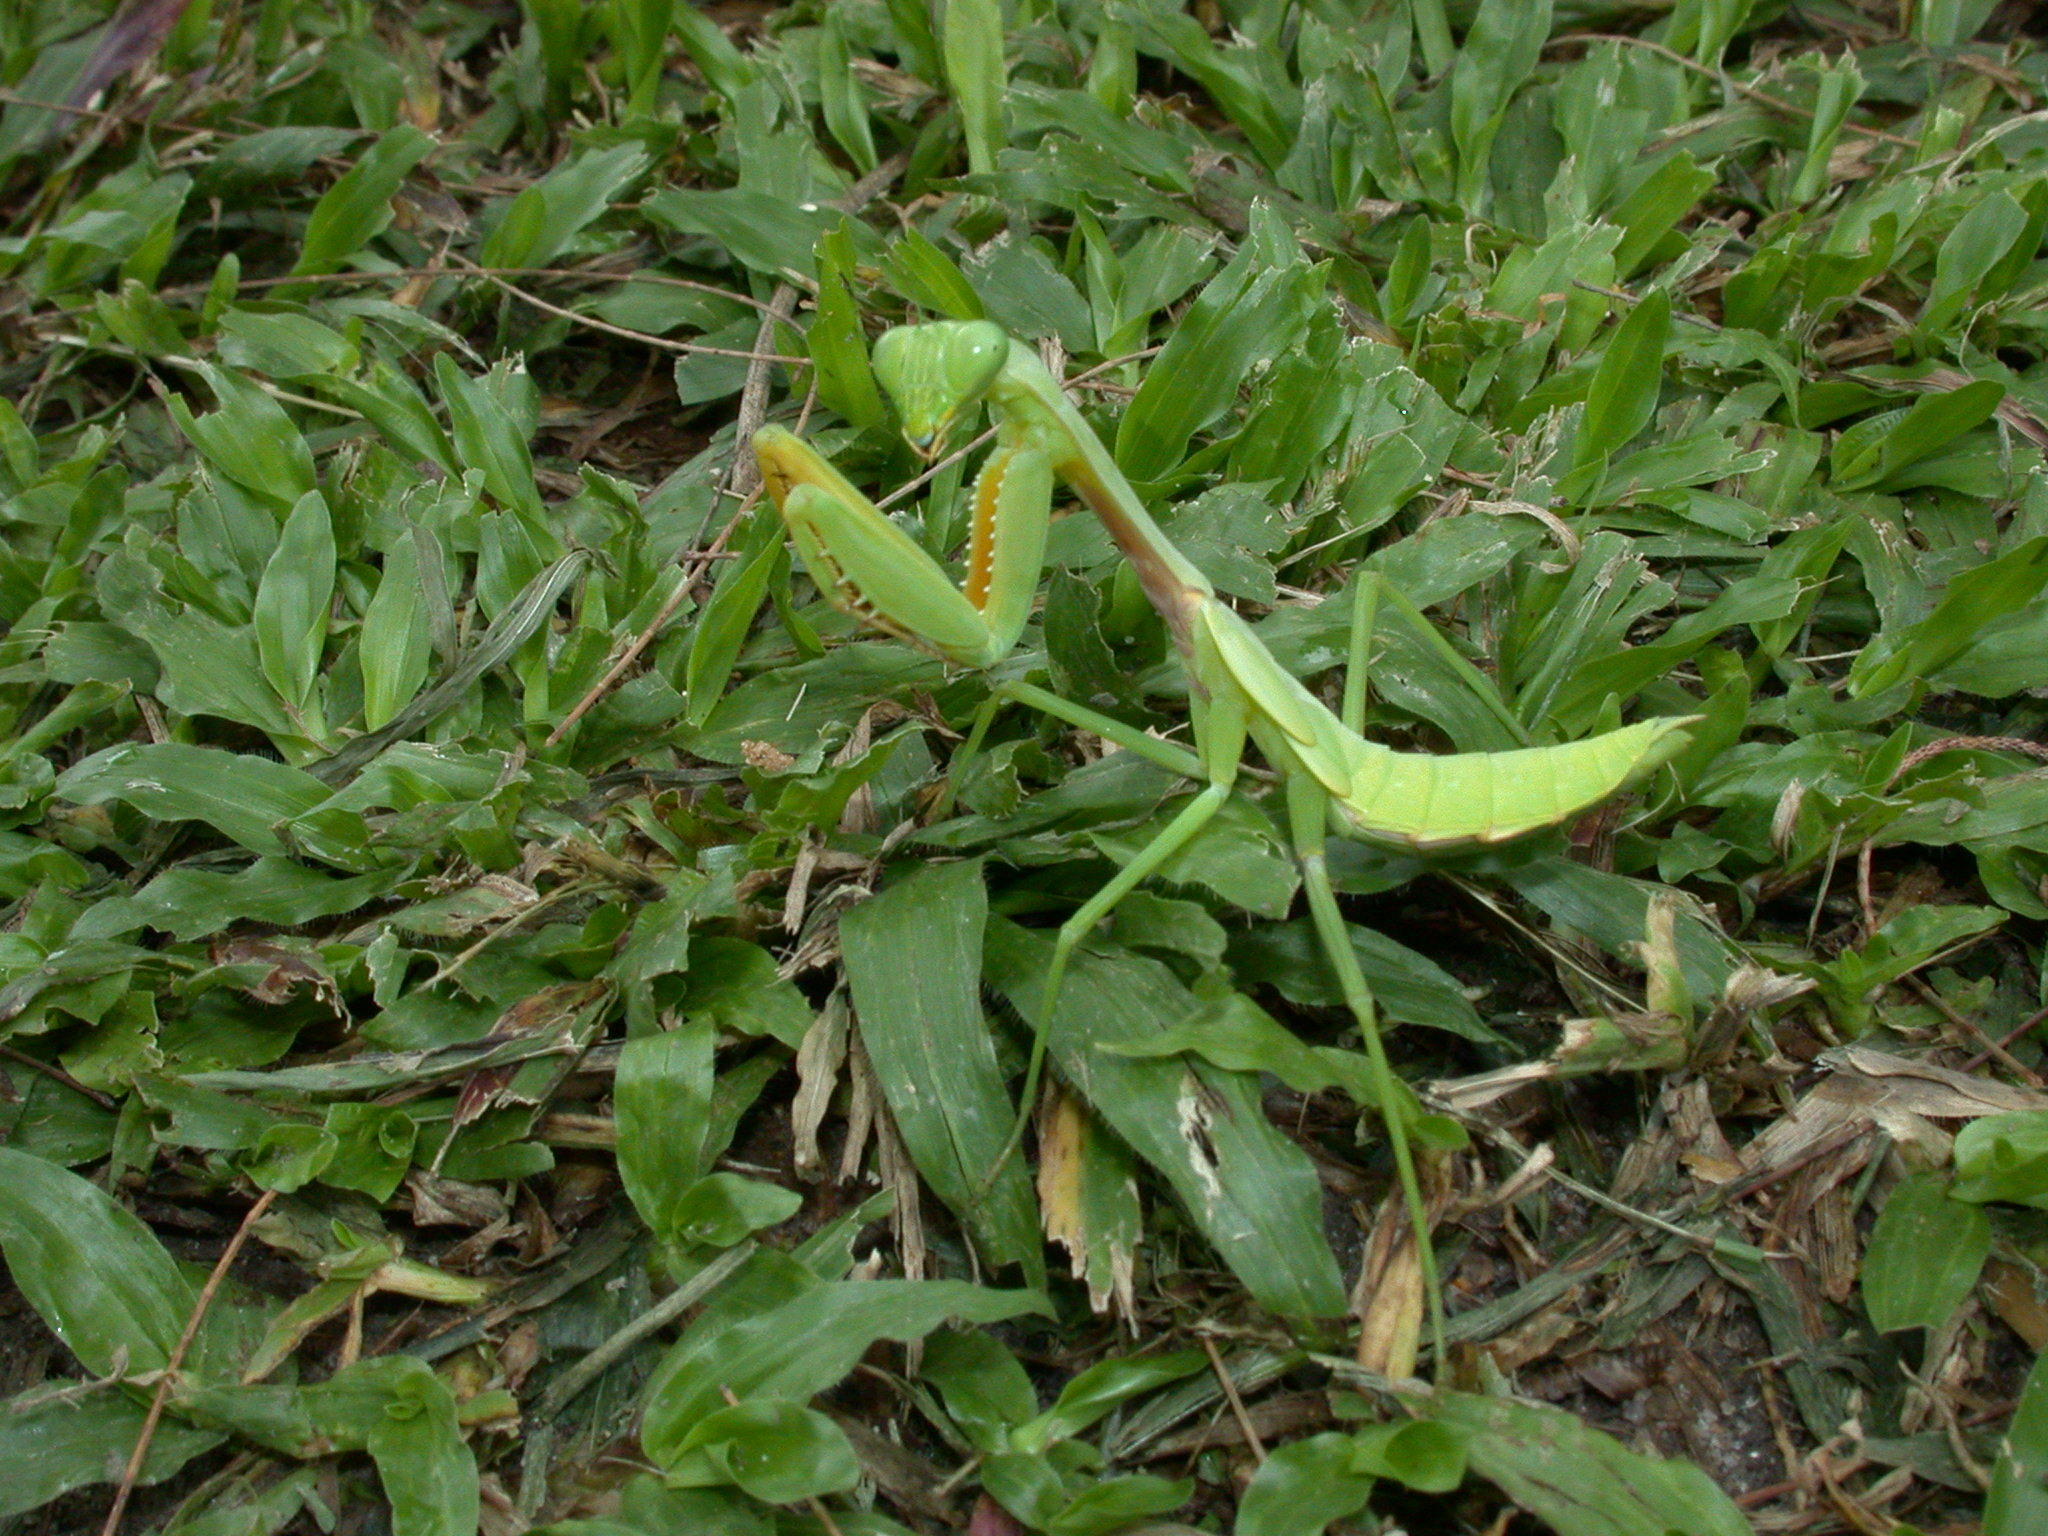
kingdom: Animalia
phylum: Arthropoda
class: Insecta
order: Mantodea
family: Mantidae
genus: Hierodula
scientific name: Hierodula venosa
